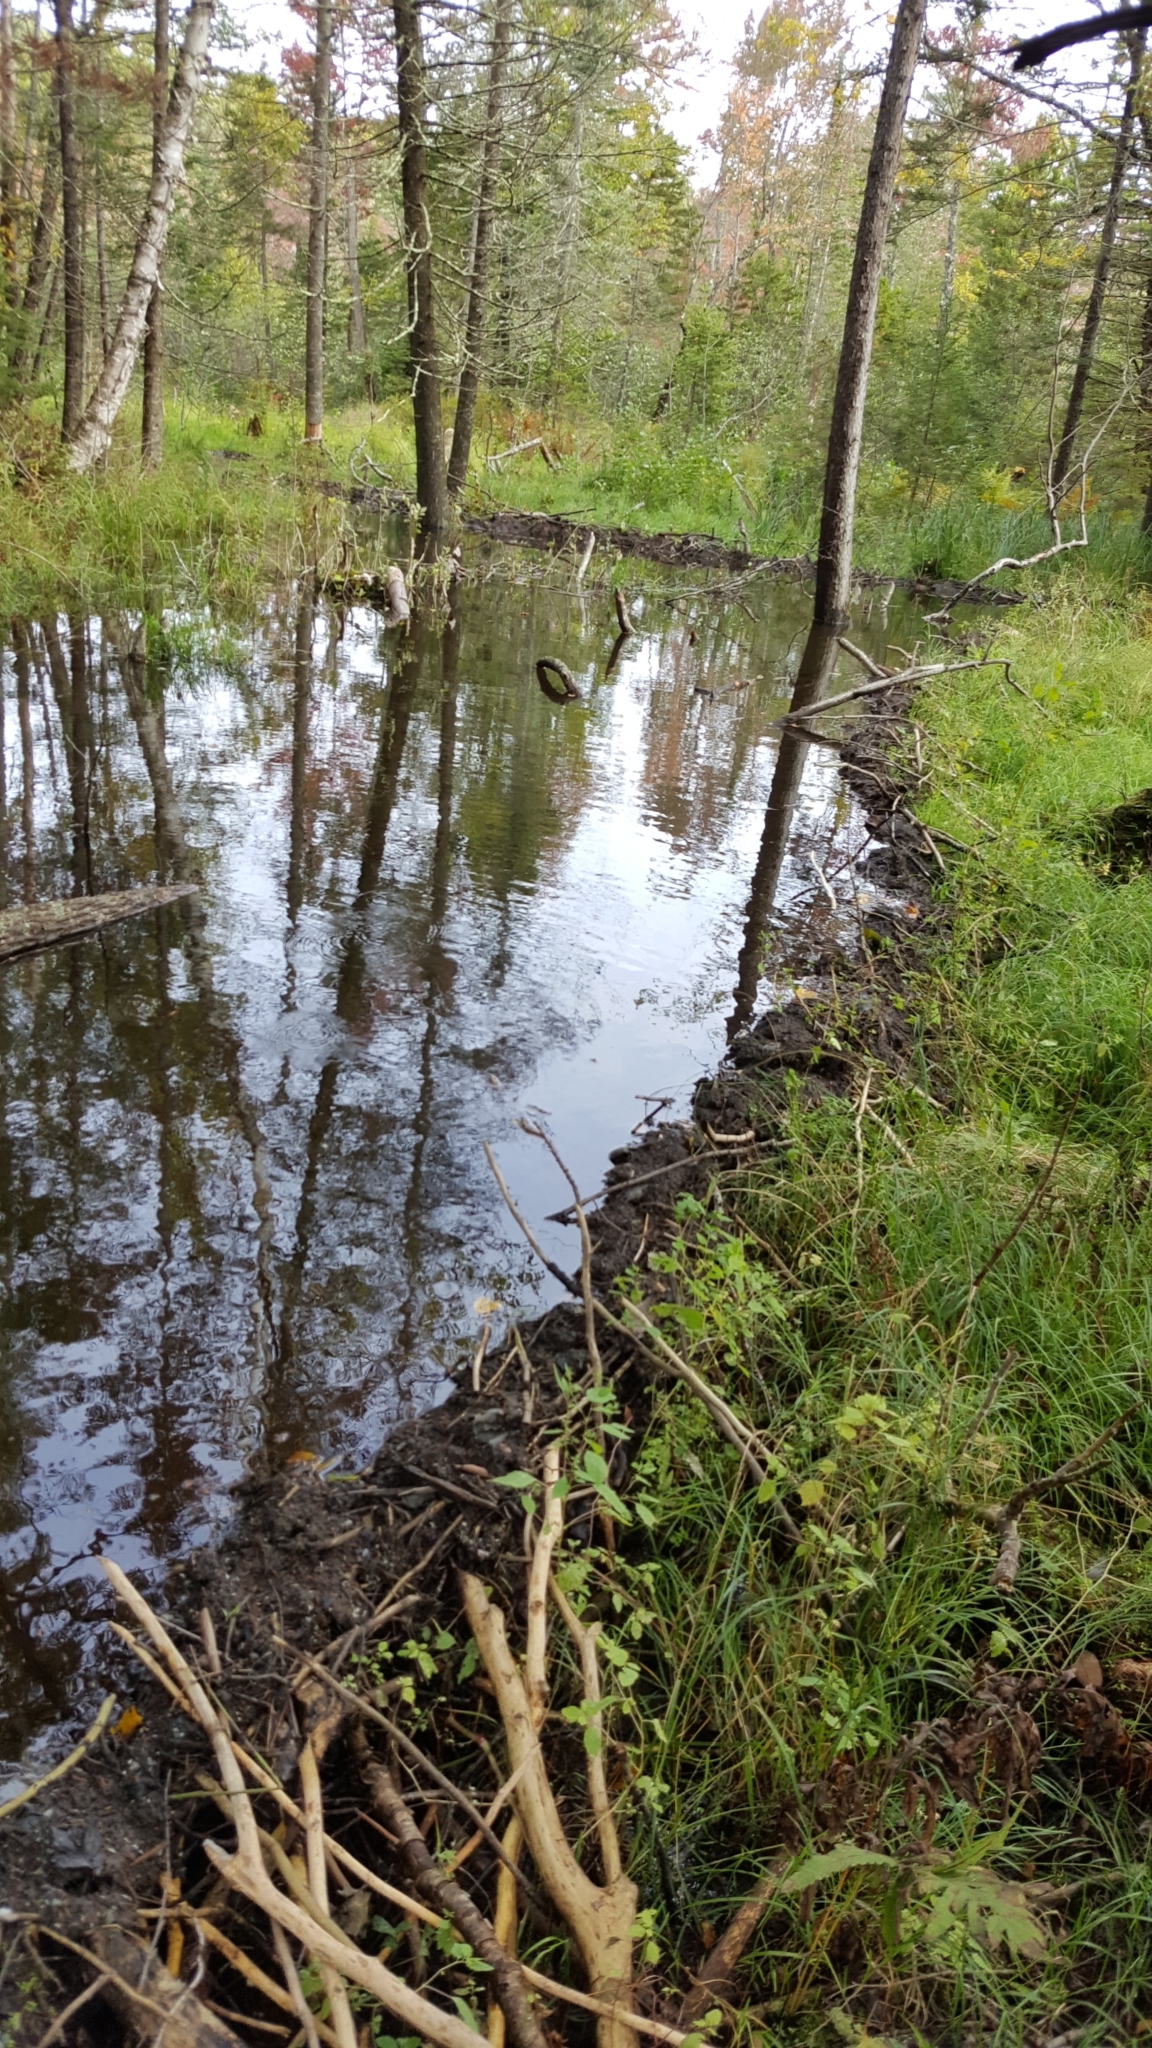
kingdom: Animalia
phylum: Chordata
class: Mammalia
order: Rodentia
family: Castoridae
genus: Castor
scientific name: Castor canadensis
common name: American beaver
